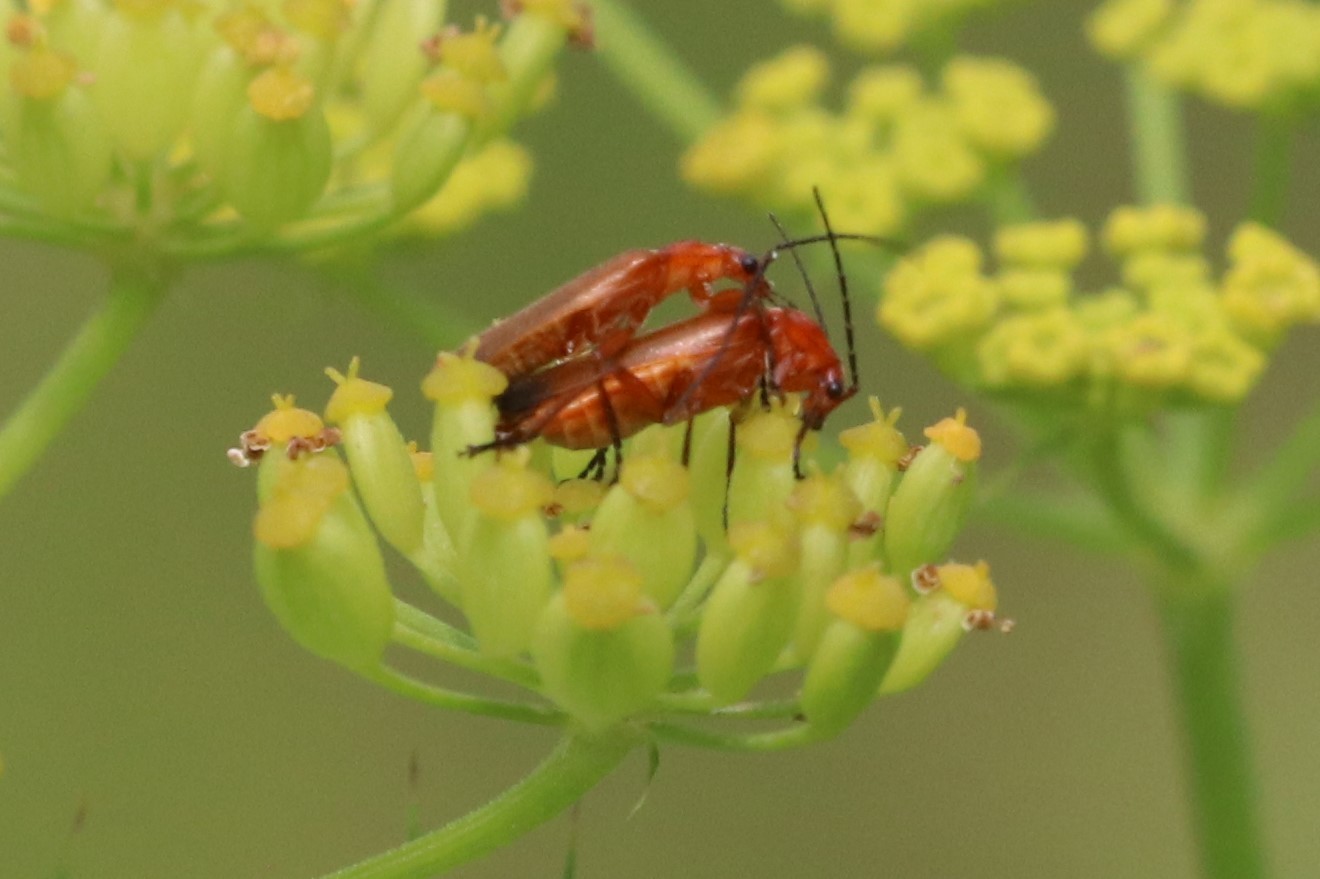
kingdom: Animalia
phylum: Arthropoda
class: Insecta
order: Coleoptera
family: Cantharidae
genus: Rhagonycha
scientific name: Rhagonycha fulva
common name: Common red soldier beetle
